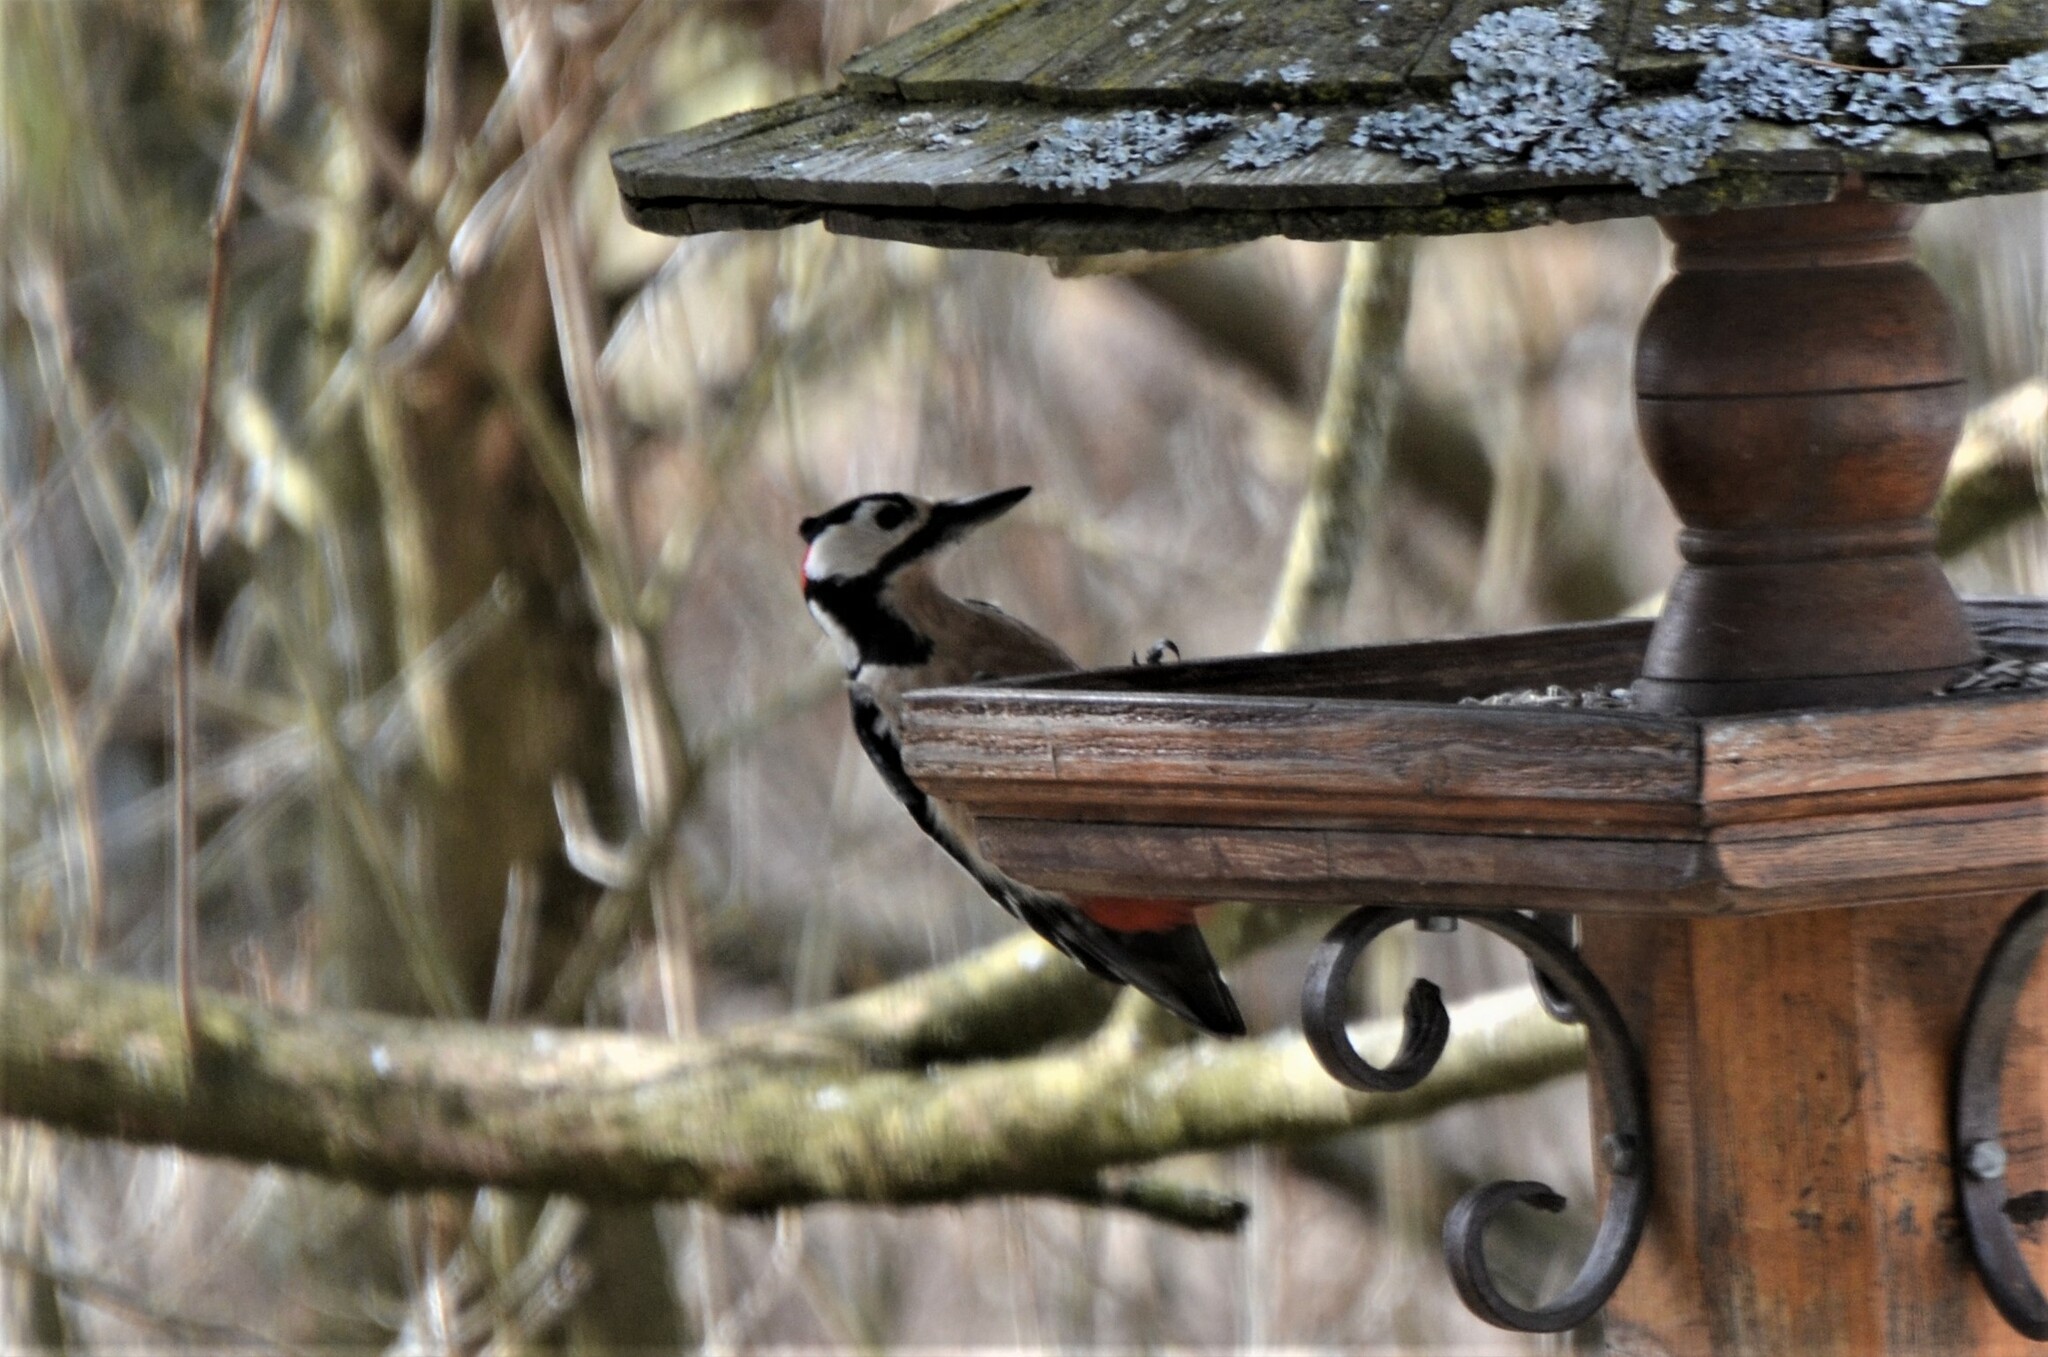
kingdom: Animalia
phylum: Chordata
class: Aves
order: Piciformes
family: Picidae
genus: Dendrocopos
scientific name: Dendrocopos major
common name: Great spotted woodpecker
